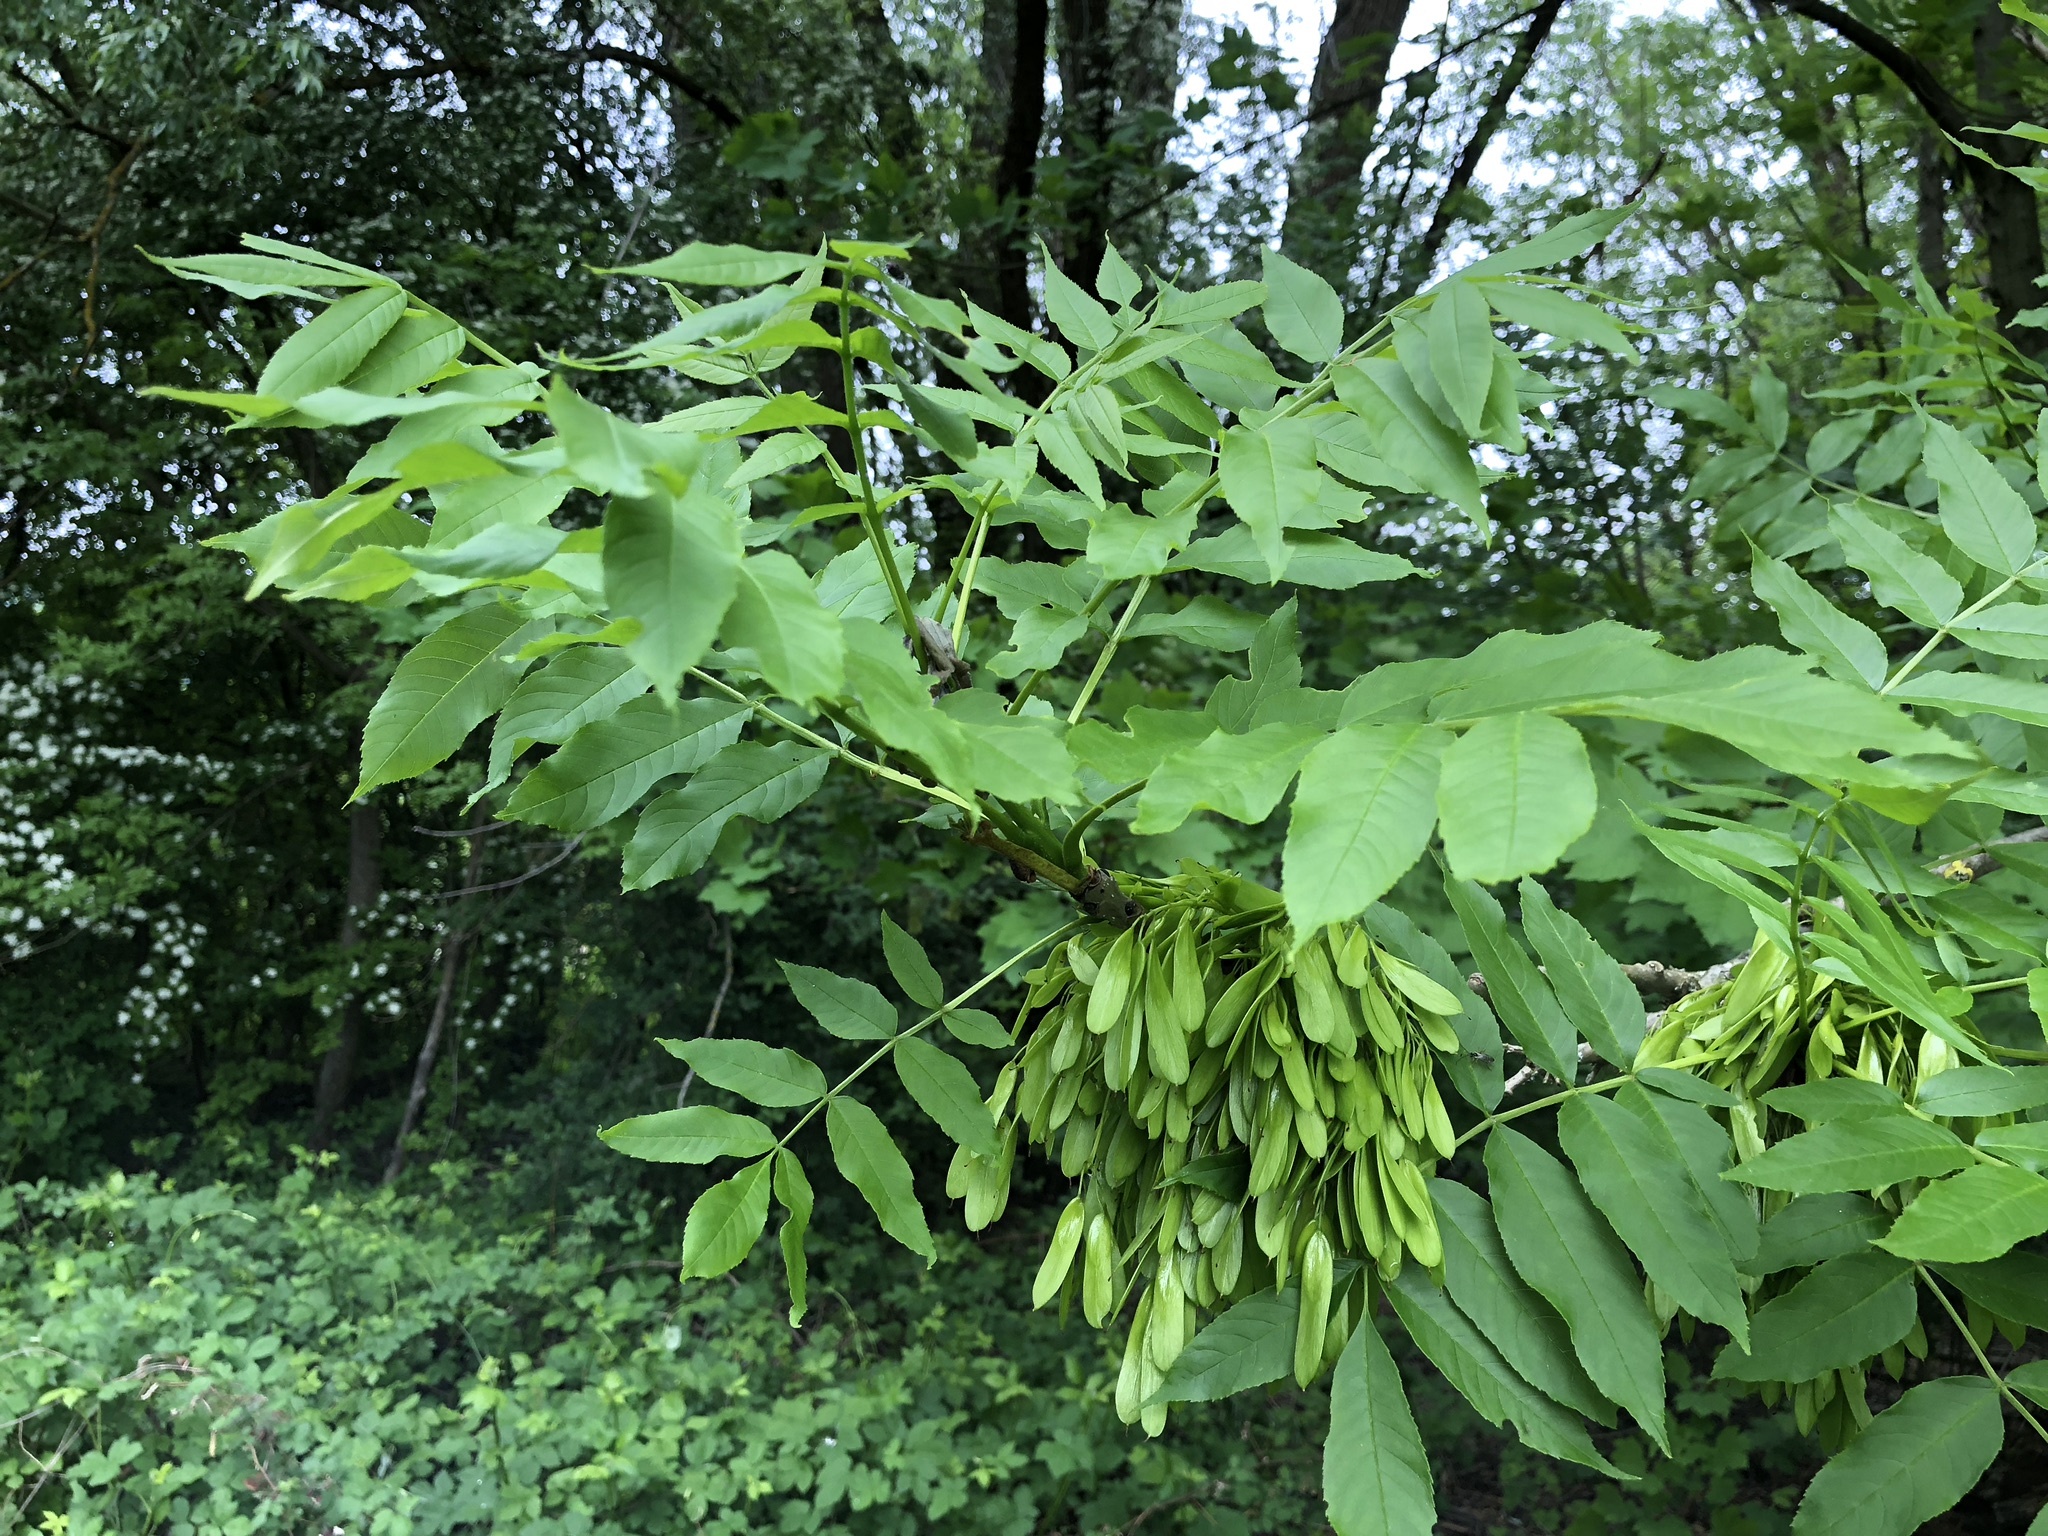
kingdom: Plantae
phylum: Tracheophyta
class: Magnoliopsida
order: Lamiales
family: Oleaceae
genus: Fraxinus
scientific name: Fraxinus excelsior
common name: European ash
